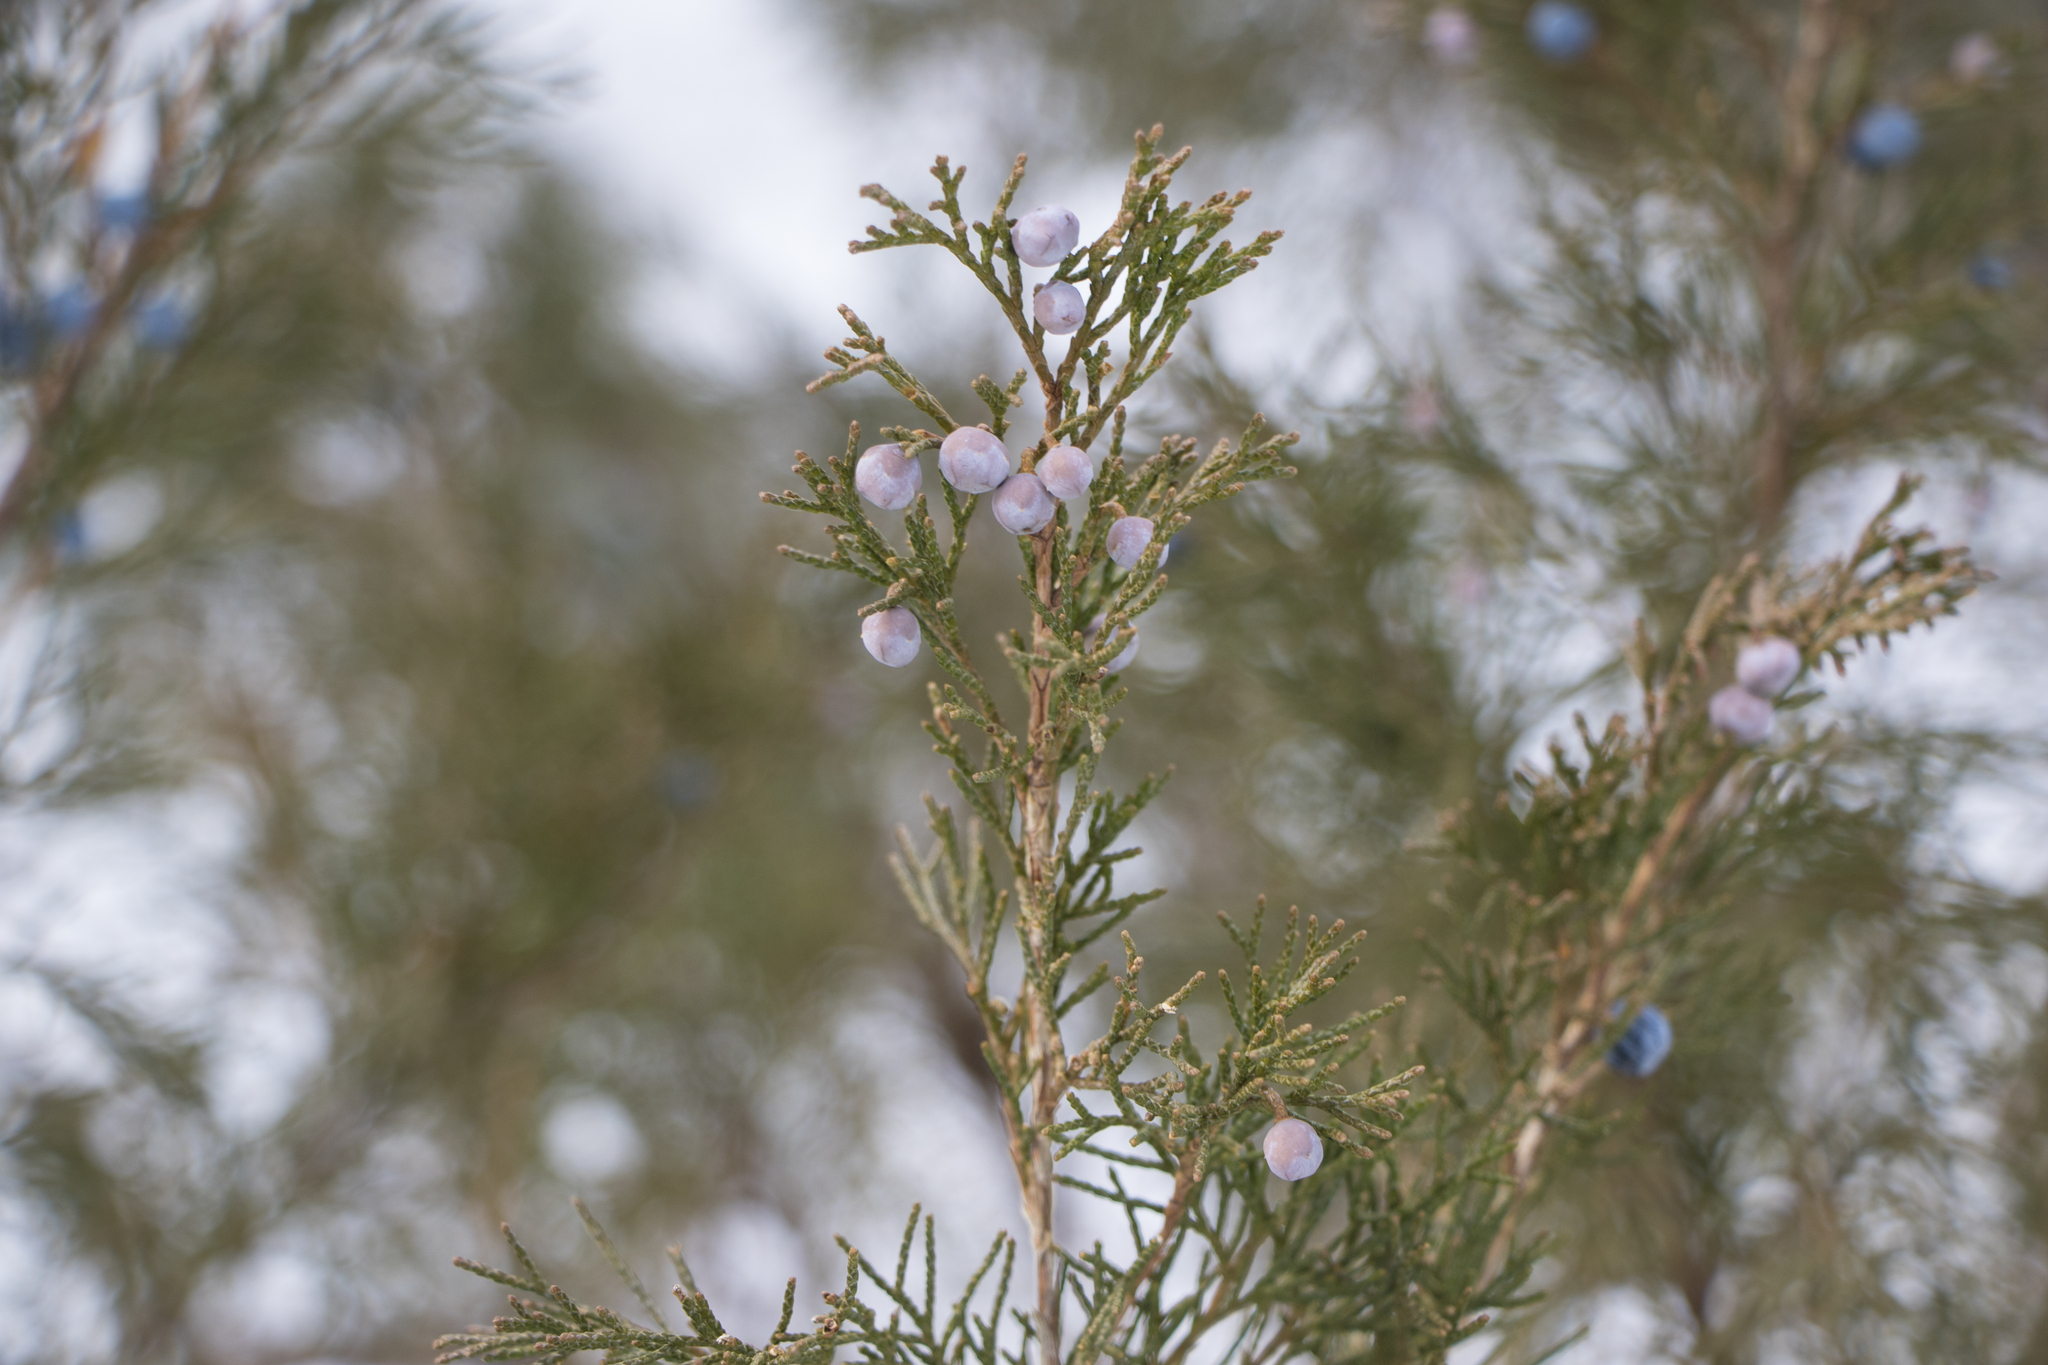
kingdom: Plantae
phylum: Tracheophyta
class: Pinopsida
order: Pinales
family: Cupressaceae
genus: Juniperus
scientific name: Juniperus sabina
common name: Savin
